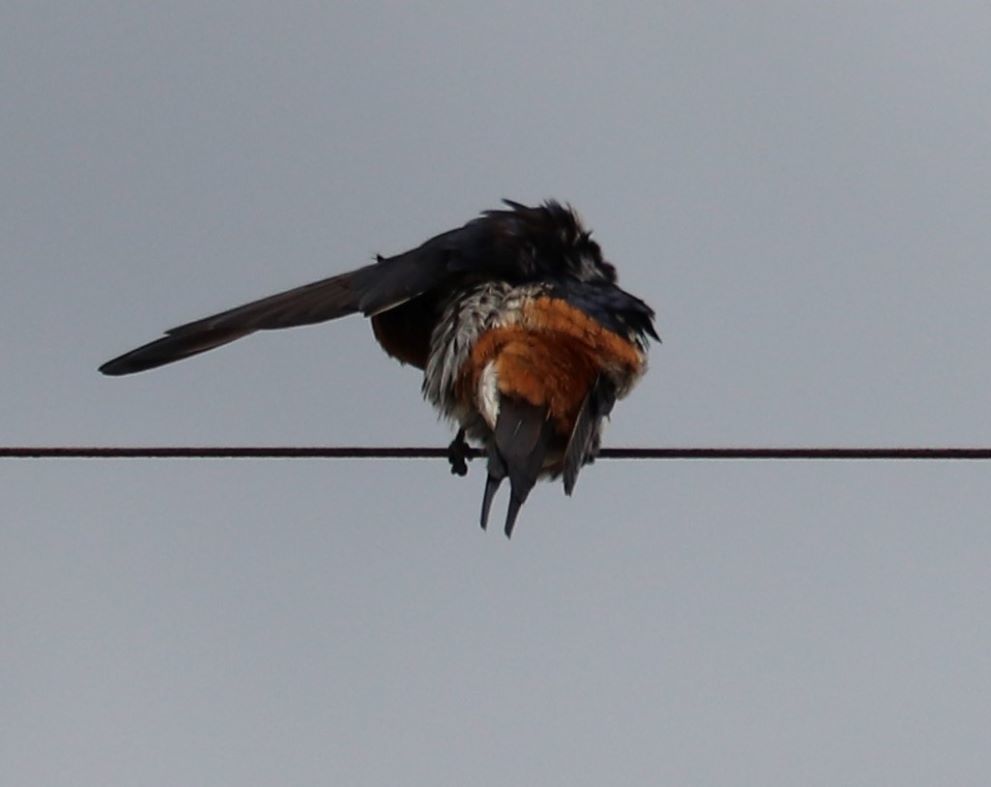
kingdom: Animalia
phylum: Chordata
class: Aves
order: Passeriformes
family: Hirundinidae
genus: Cecropis
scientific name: Cecropis abyssinica
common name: Lesser striped-swallow
